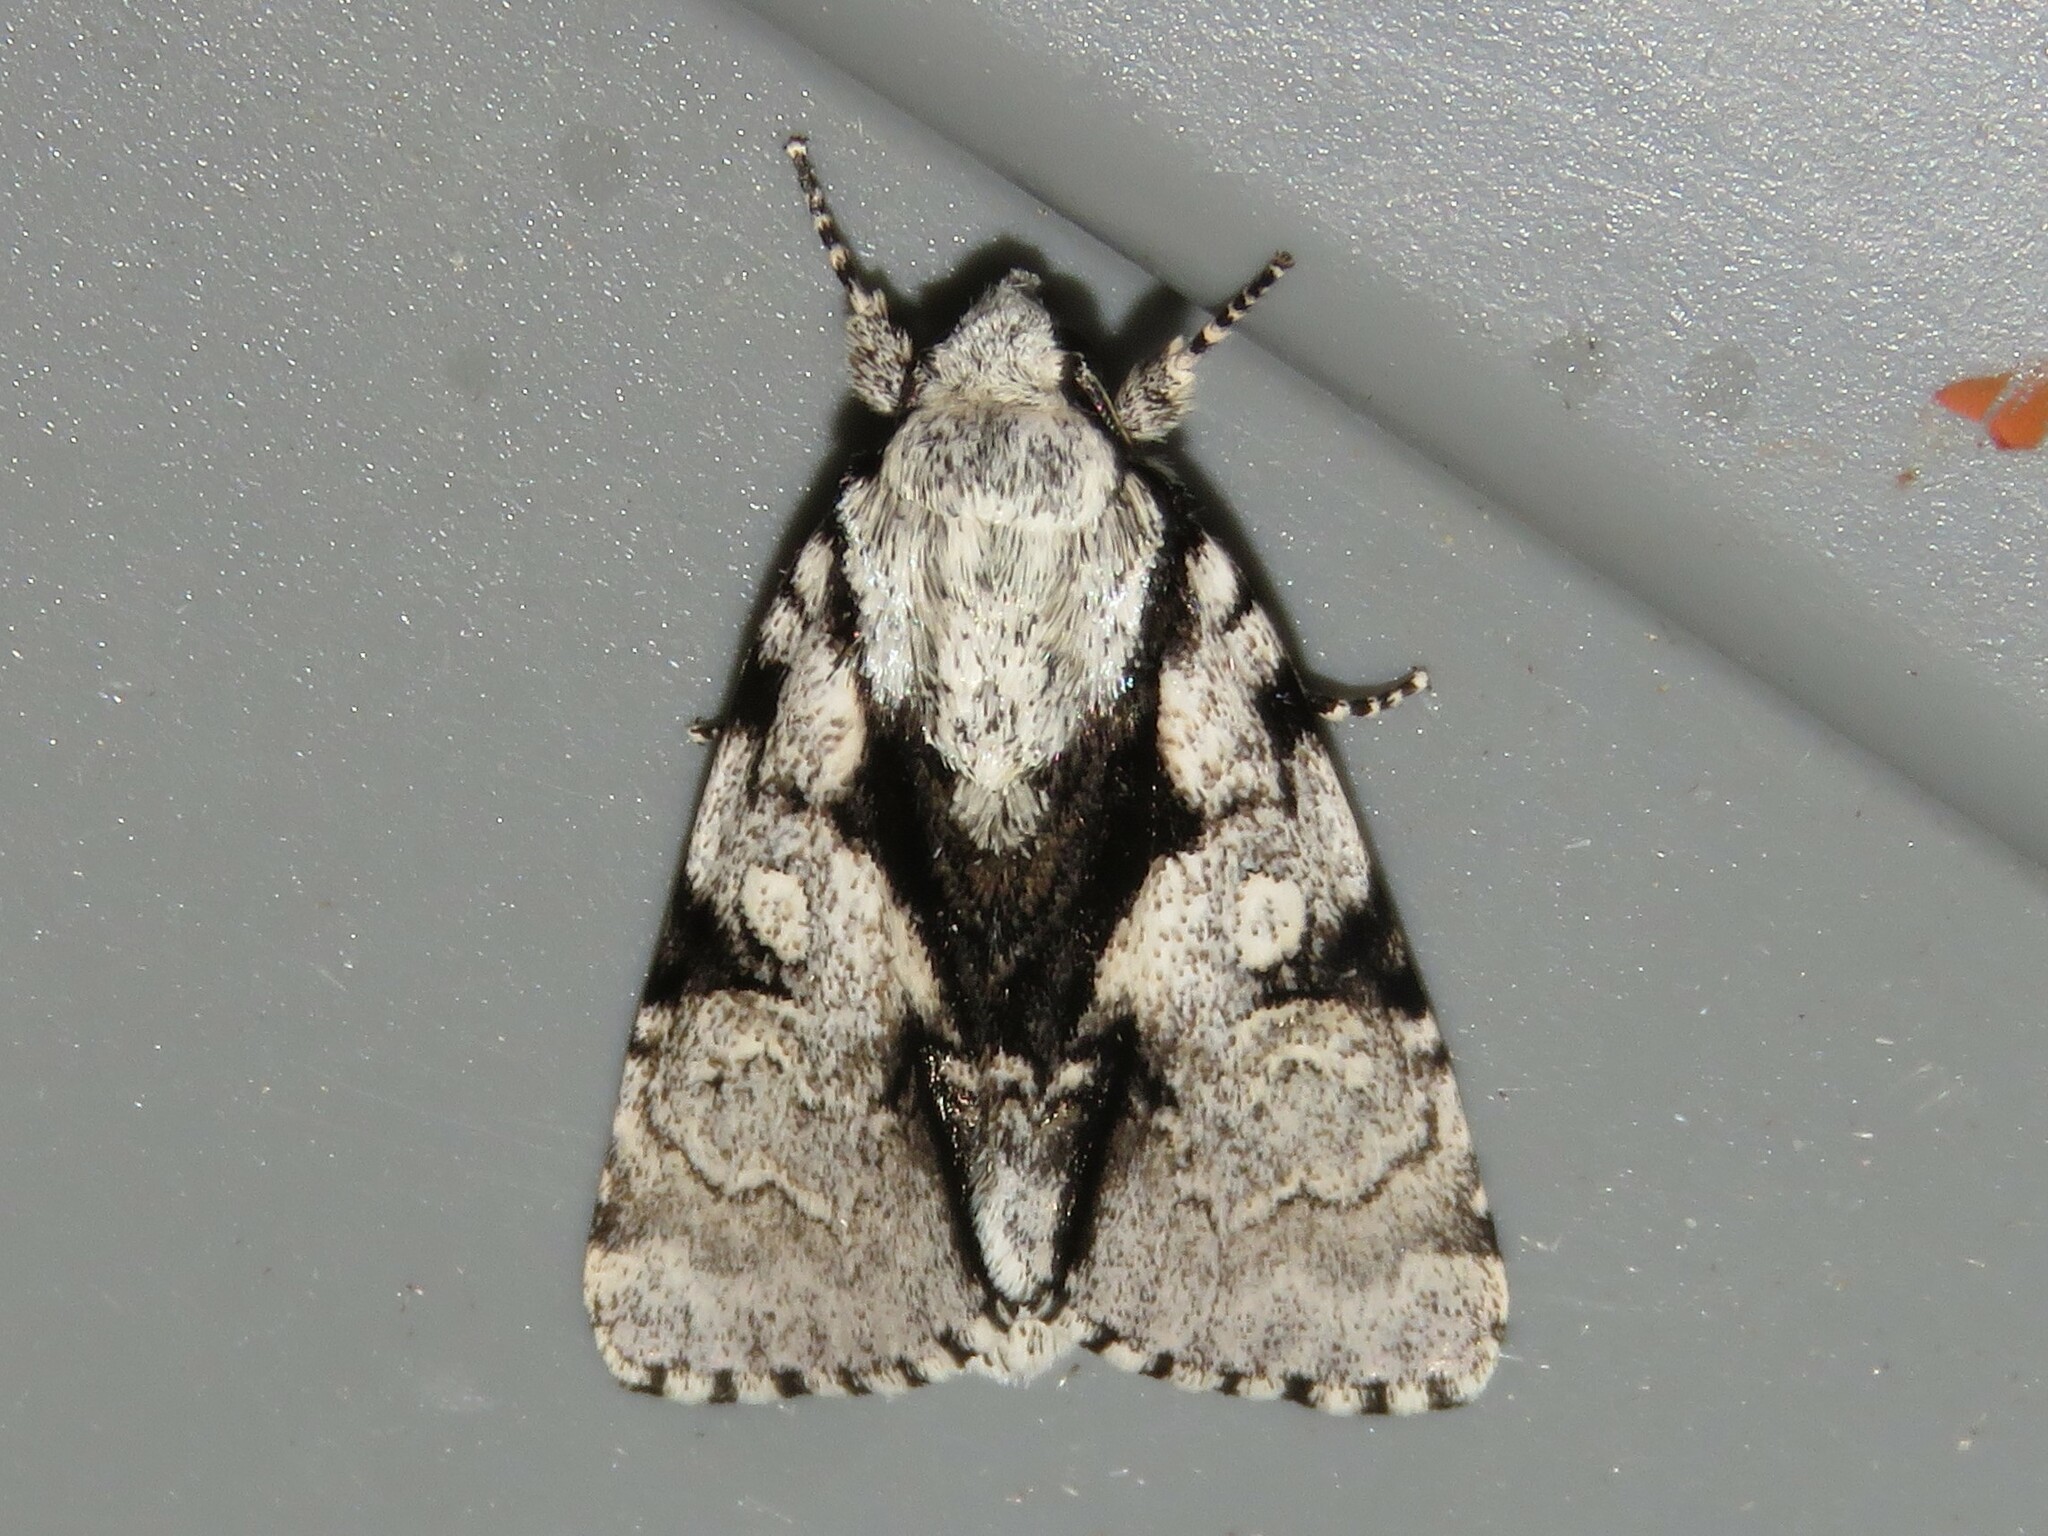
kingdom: Animalia
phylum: Arthropoda
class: Insecta
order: Lepidoptera
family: Noctuidae
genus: Acronicta
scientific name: Acronicta funeralis
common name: Funerary dagger
